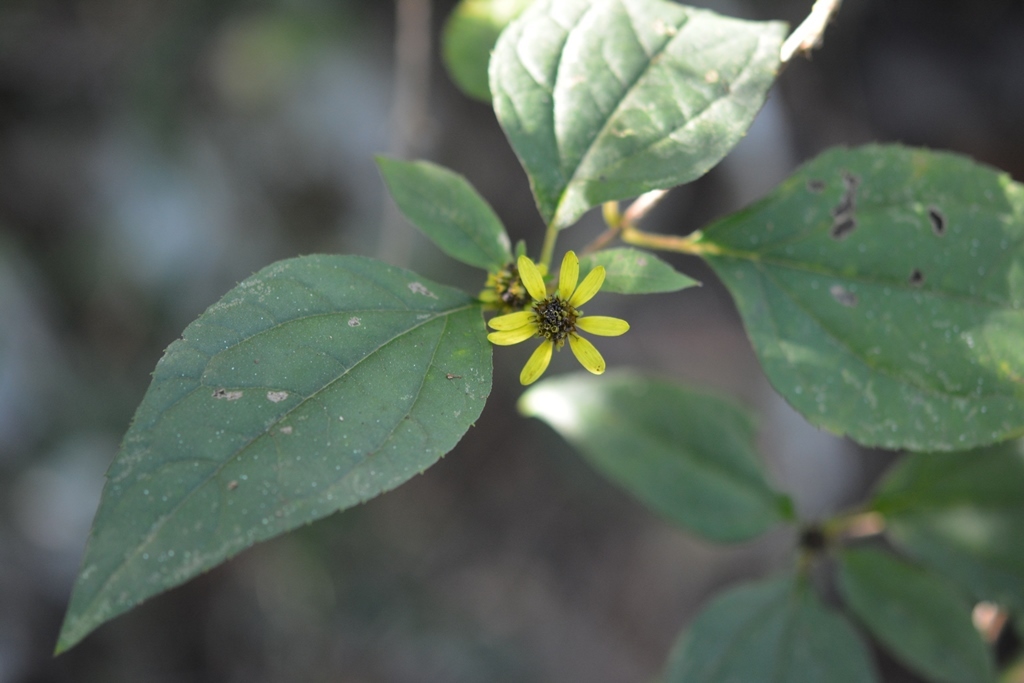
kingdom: Plantae
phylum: Tracheophyta
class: Magnoliopsida
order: Asterales
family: Asteraceae
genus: Philactis
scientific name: Philactis zinnioides
